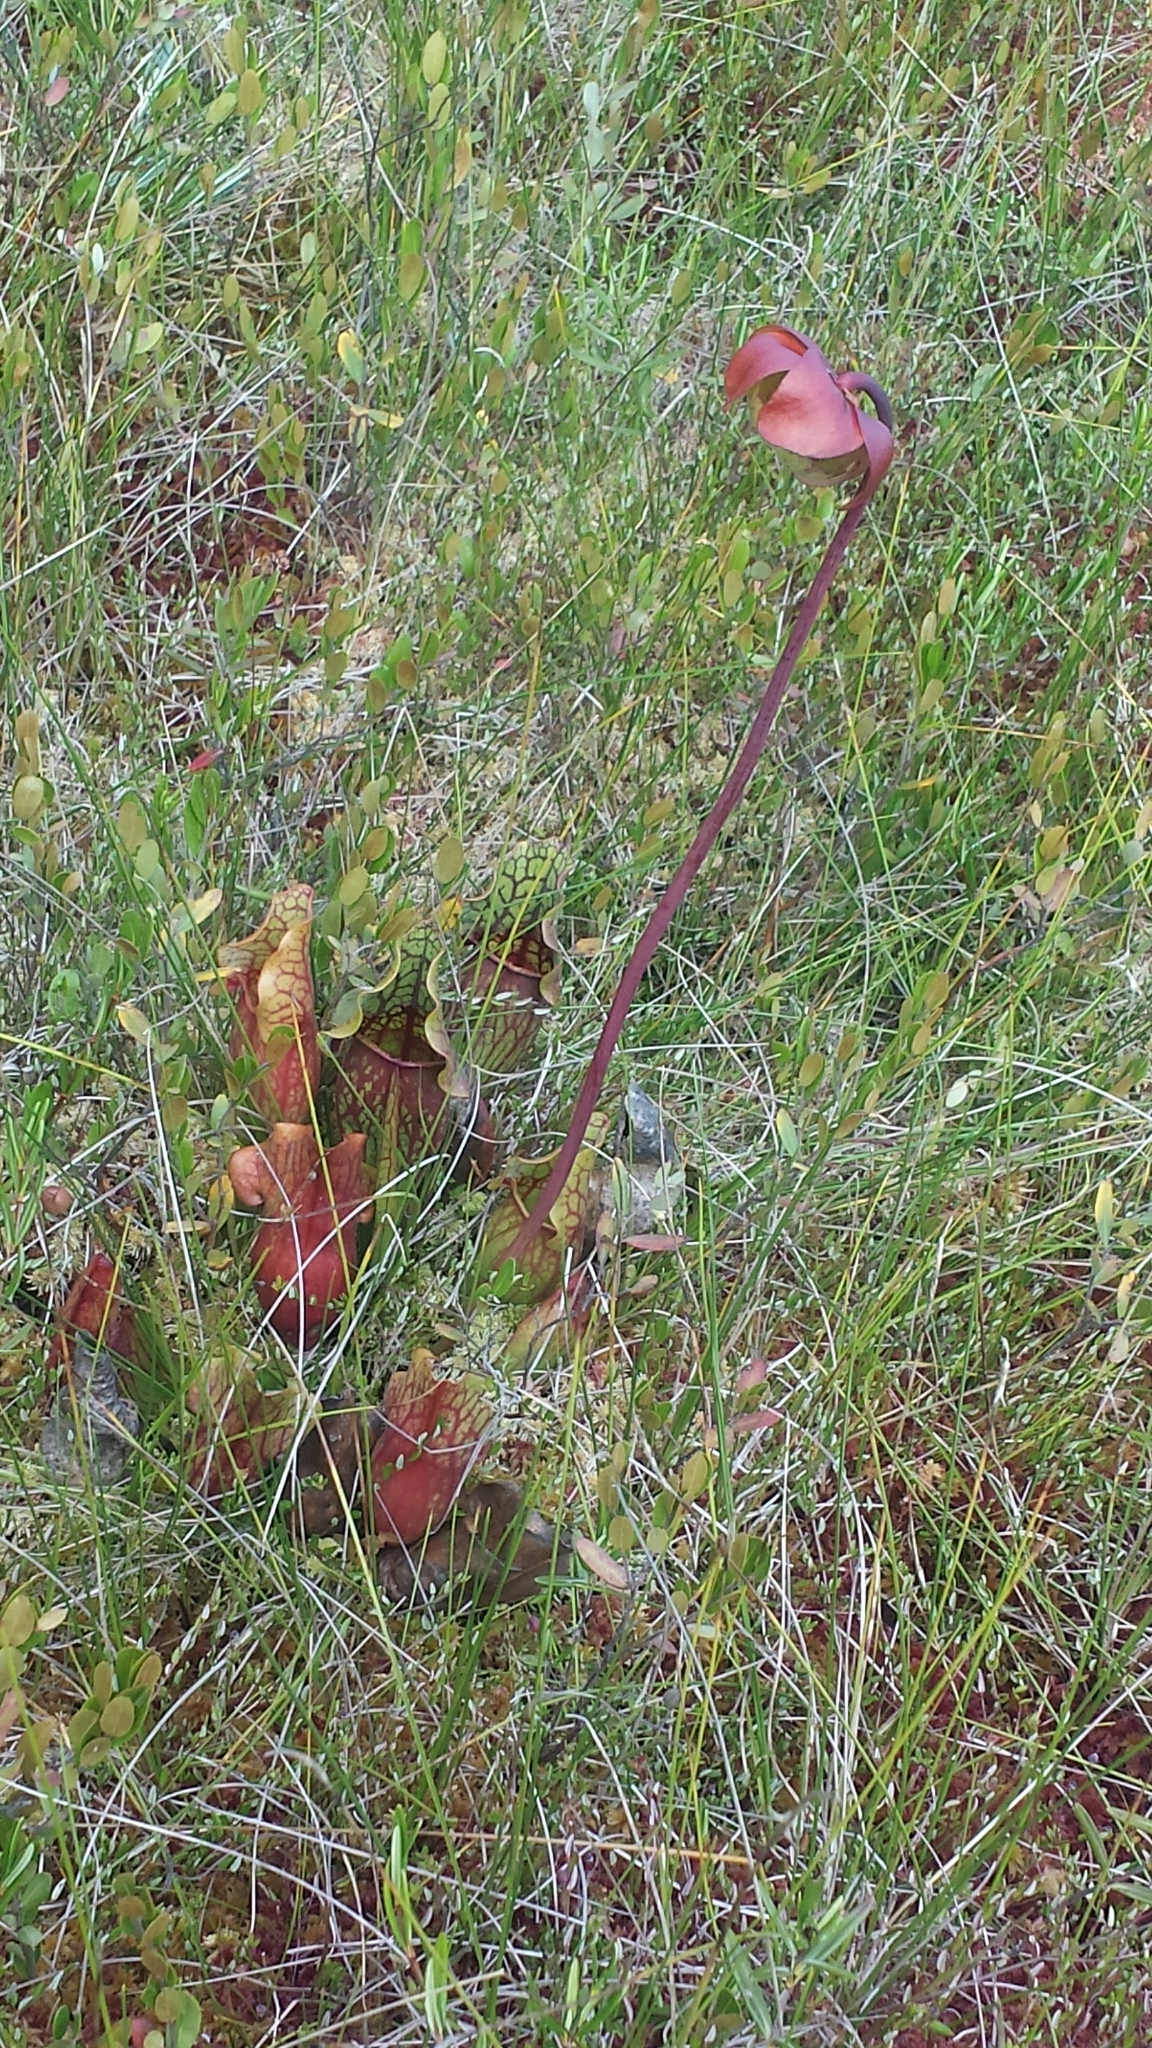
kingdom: Plantae
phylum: Tracheophyta
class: Magnoliopsida
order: Ericales
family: Sarraceniaceae
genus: Sarracenia
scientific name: Sarracenia purpurea
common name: Pitcherplant
